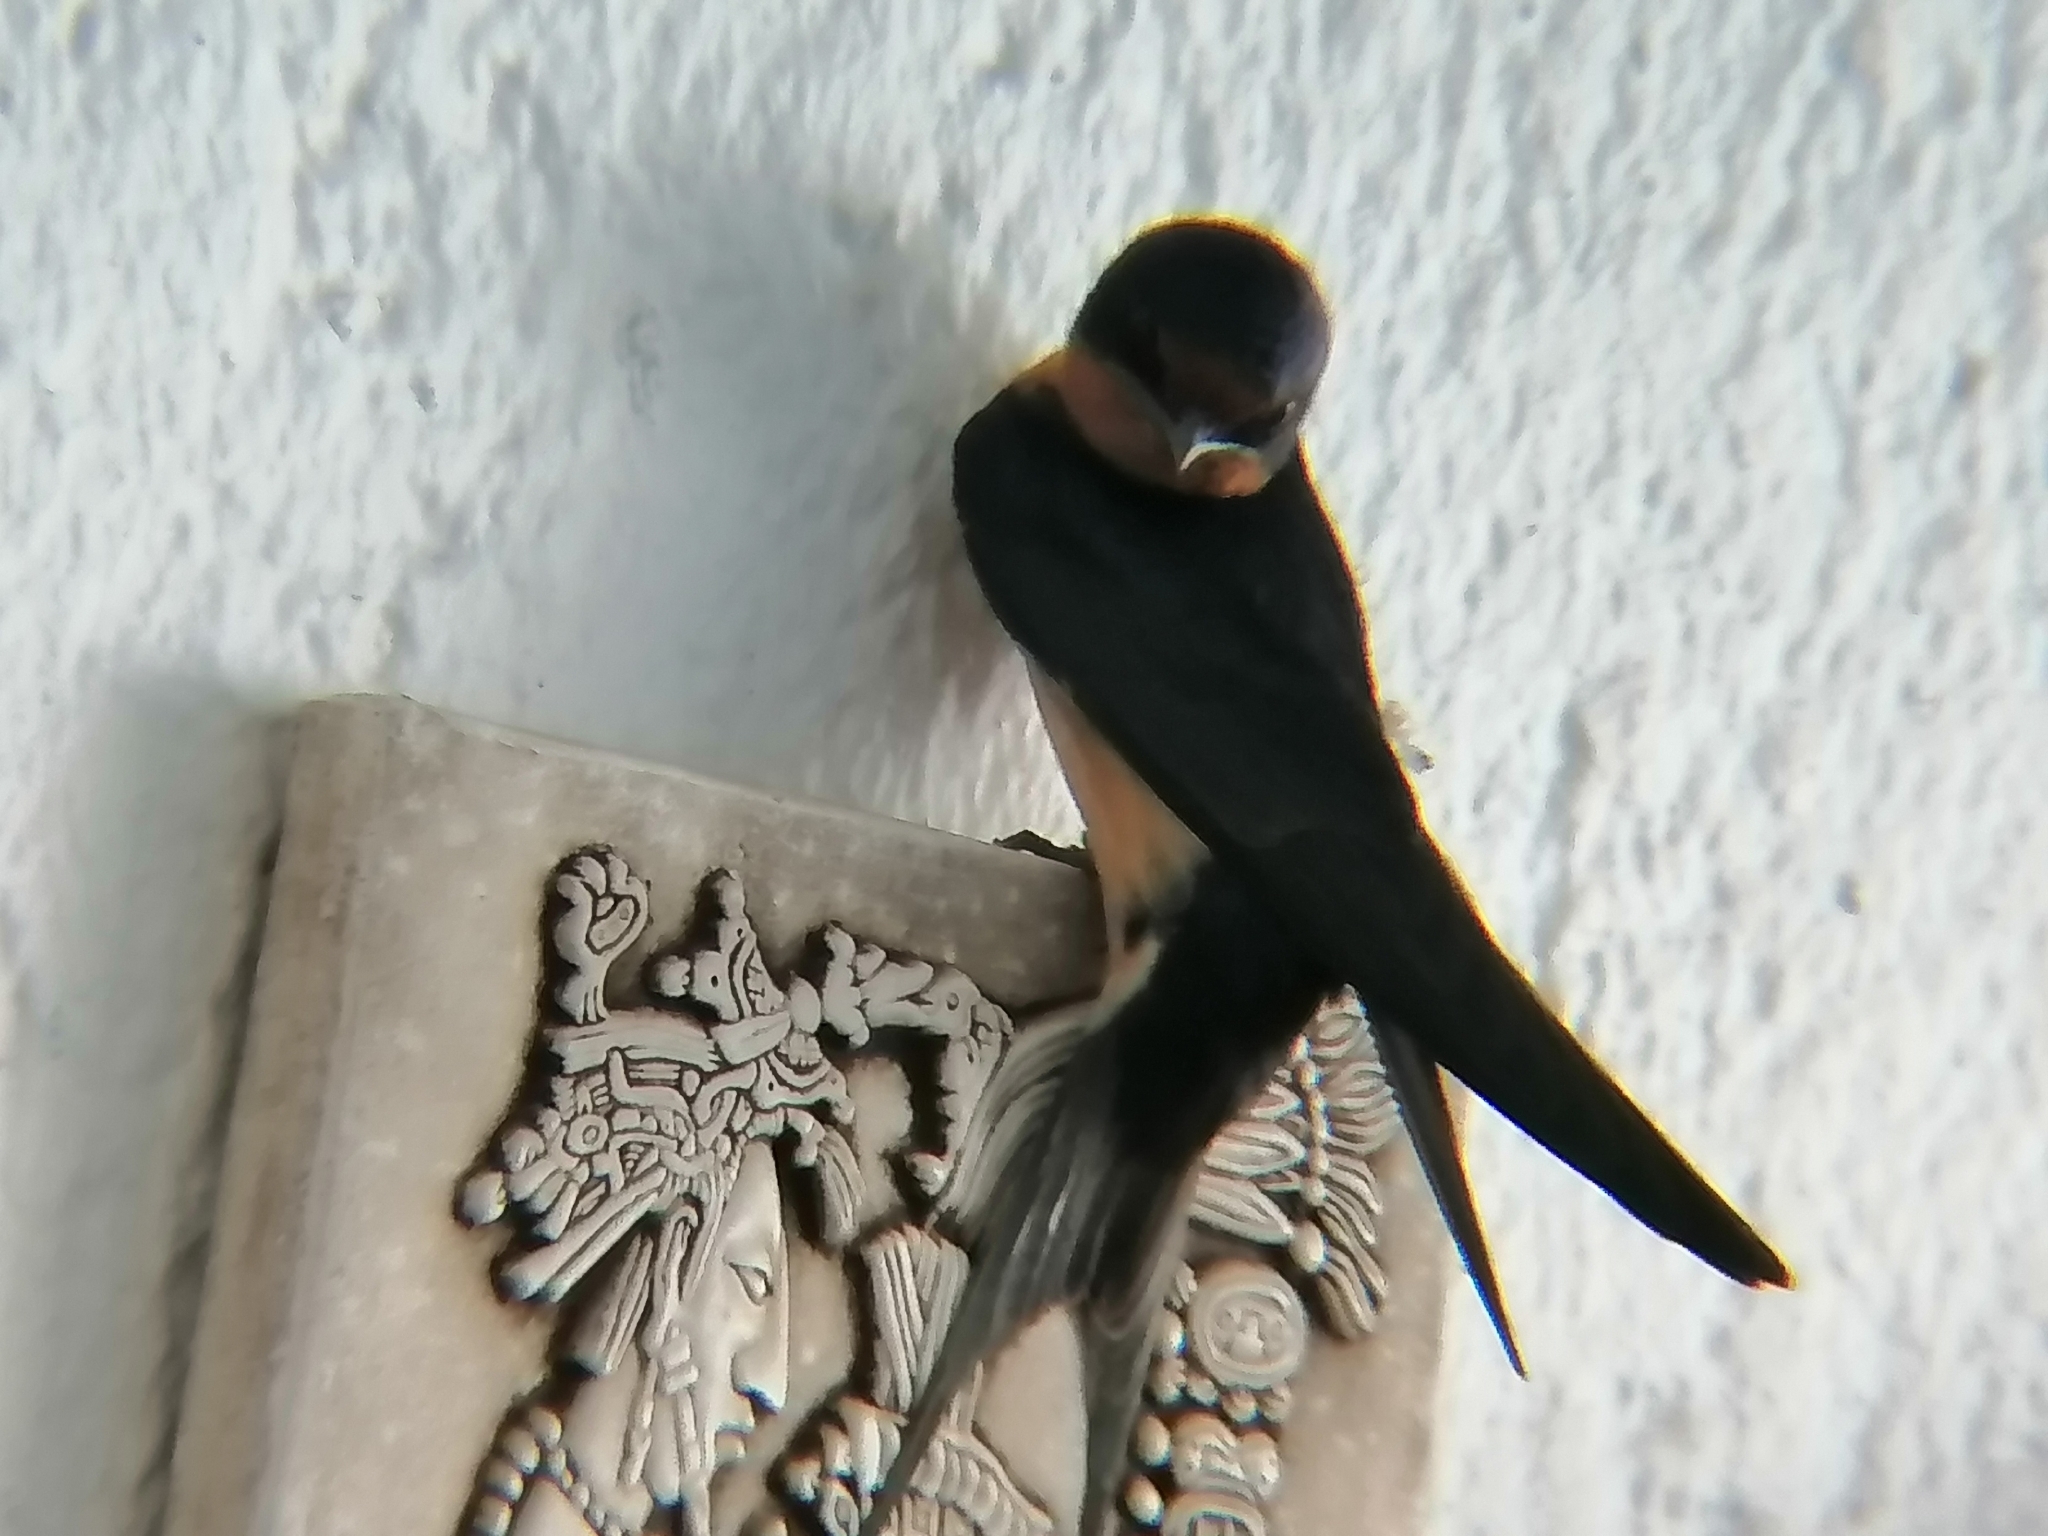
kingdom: Animalia
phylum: Chordata
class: Aves
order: Passeriformes
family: Hirundinidae
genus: Hirundo
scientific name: Hirundo rustica
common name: Barn swallow
